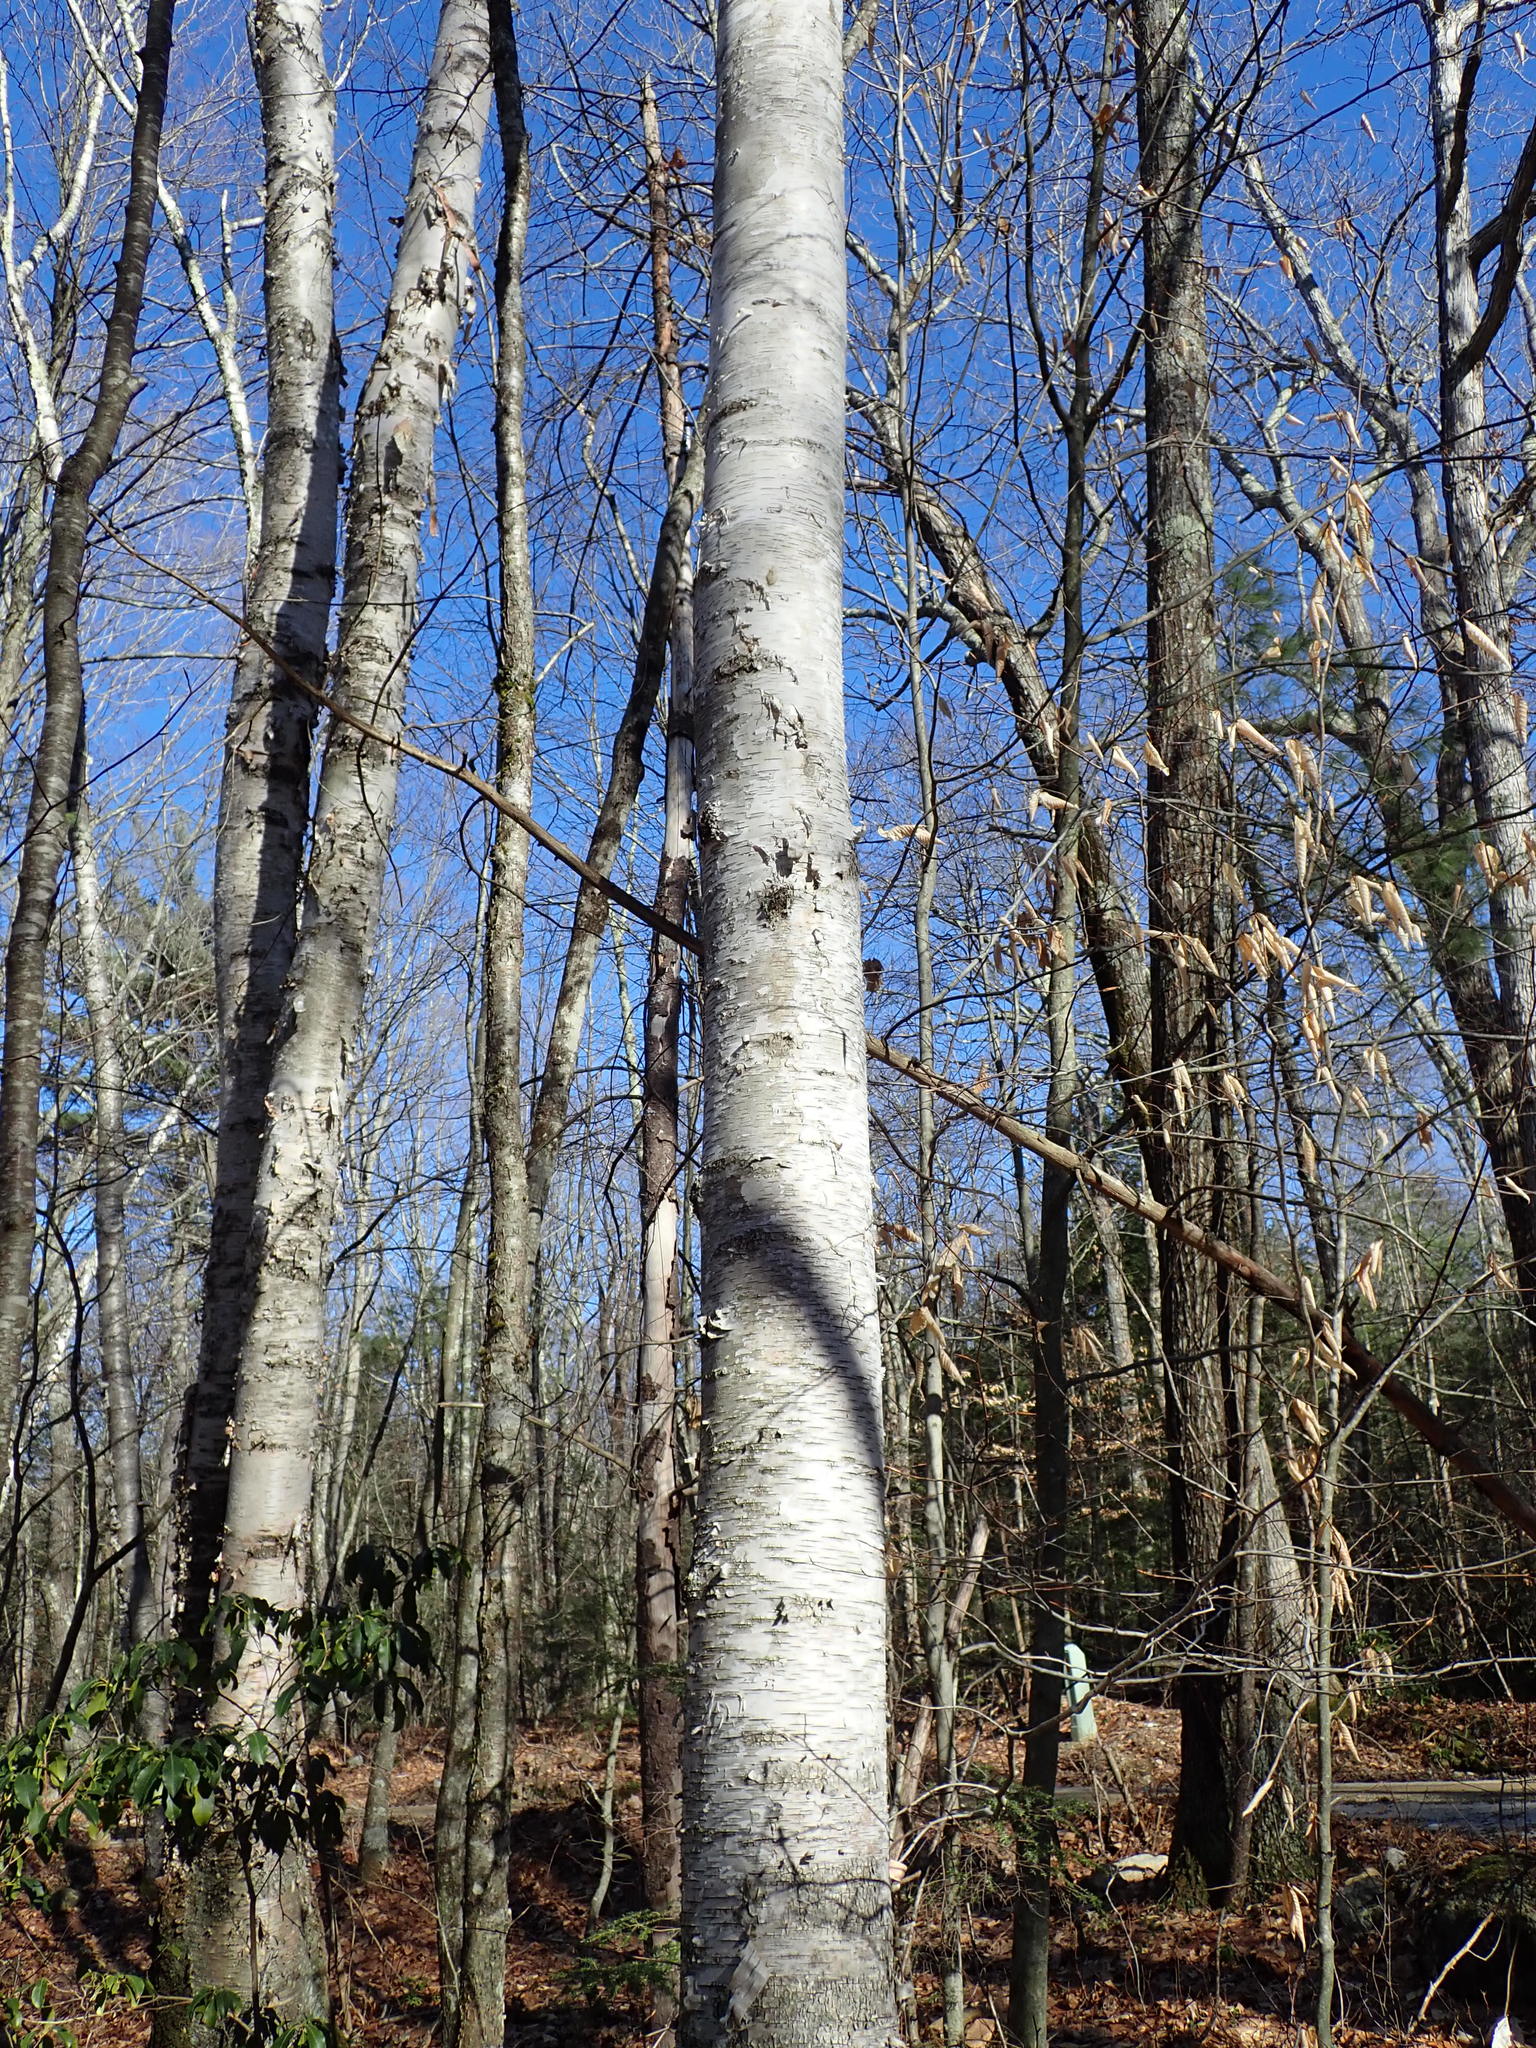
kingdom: Plantae
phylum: Tracheophyta
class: Magnoliopsida
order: Fagales
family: Betulaceae
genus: Betula
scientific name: Betula papyrifera
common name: Paper birch
